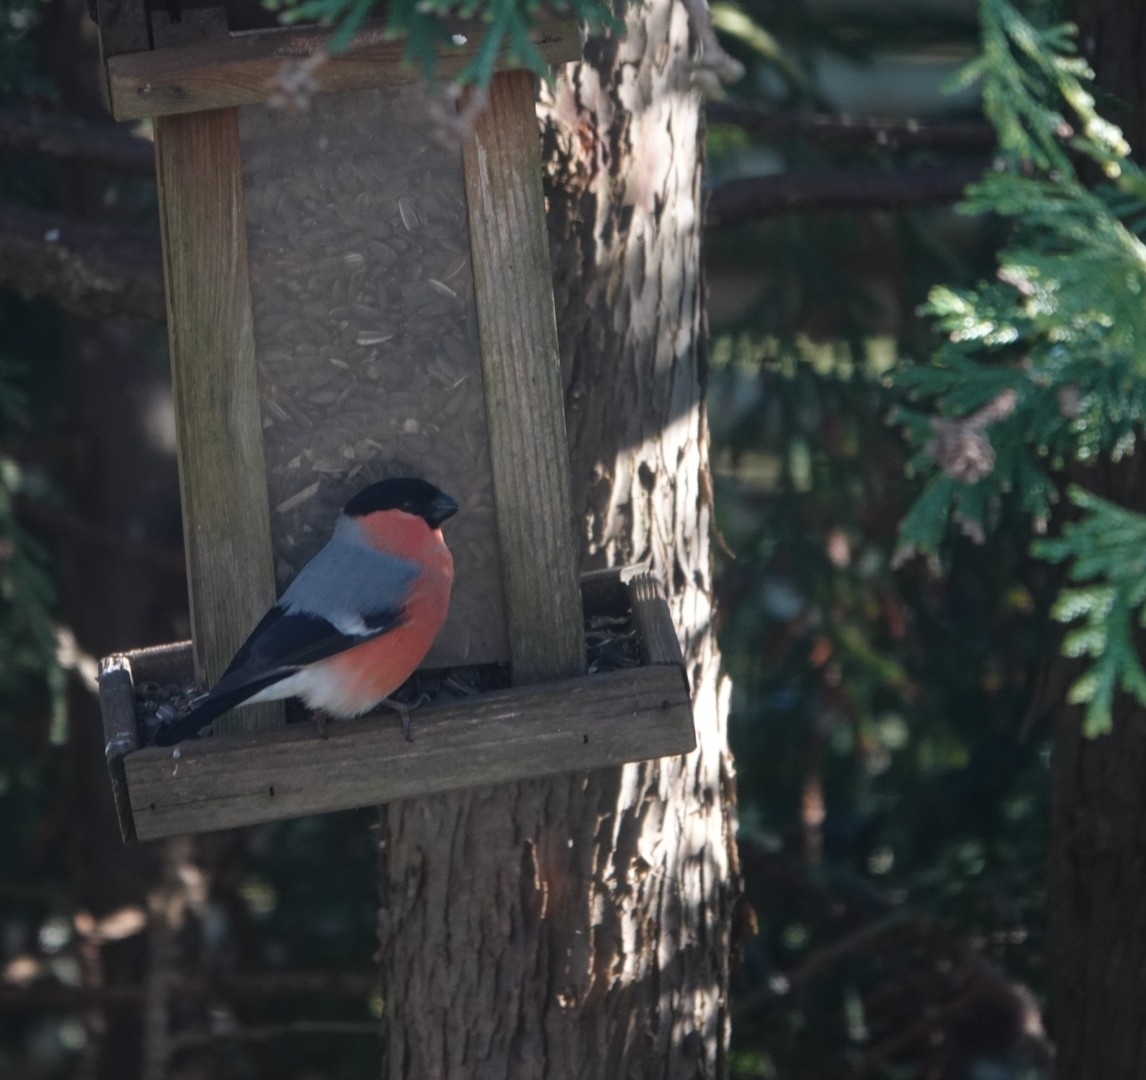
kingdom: Animalia
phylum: Chordata
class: Aves
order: Passeriformes
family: Fringillidae
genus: Pyrrhula
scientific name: Pyrrhula pyrrhula
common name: Eurasian bullfinch
